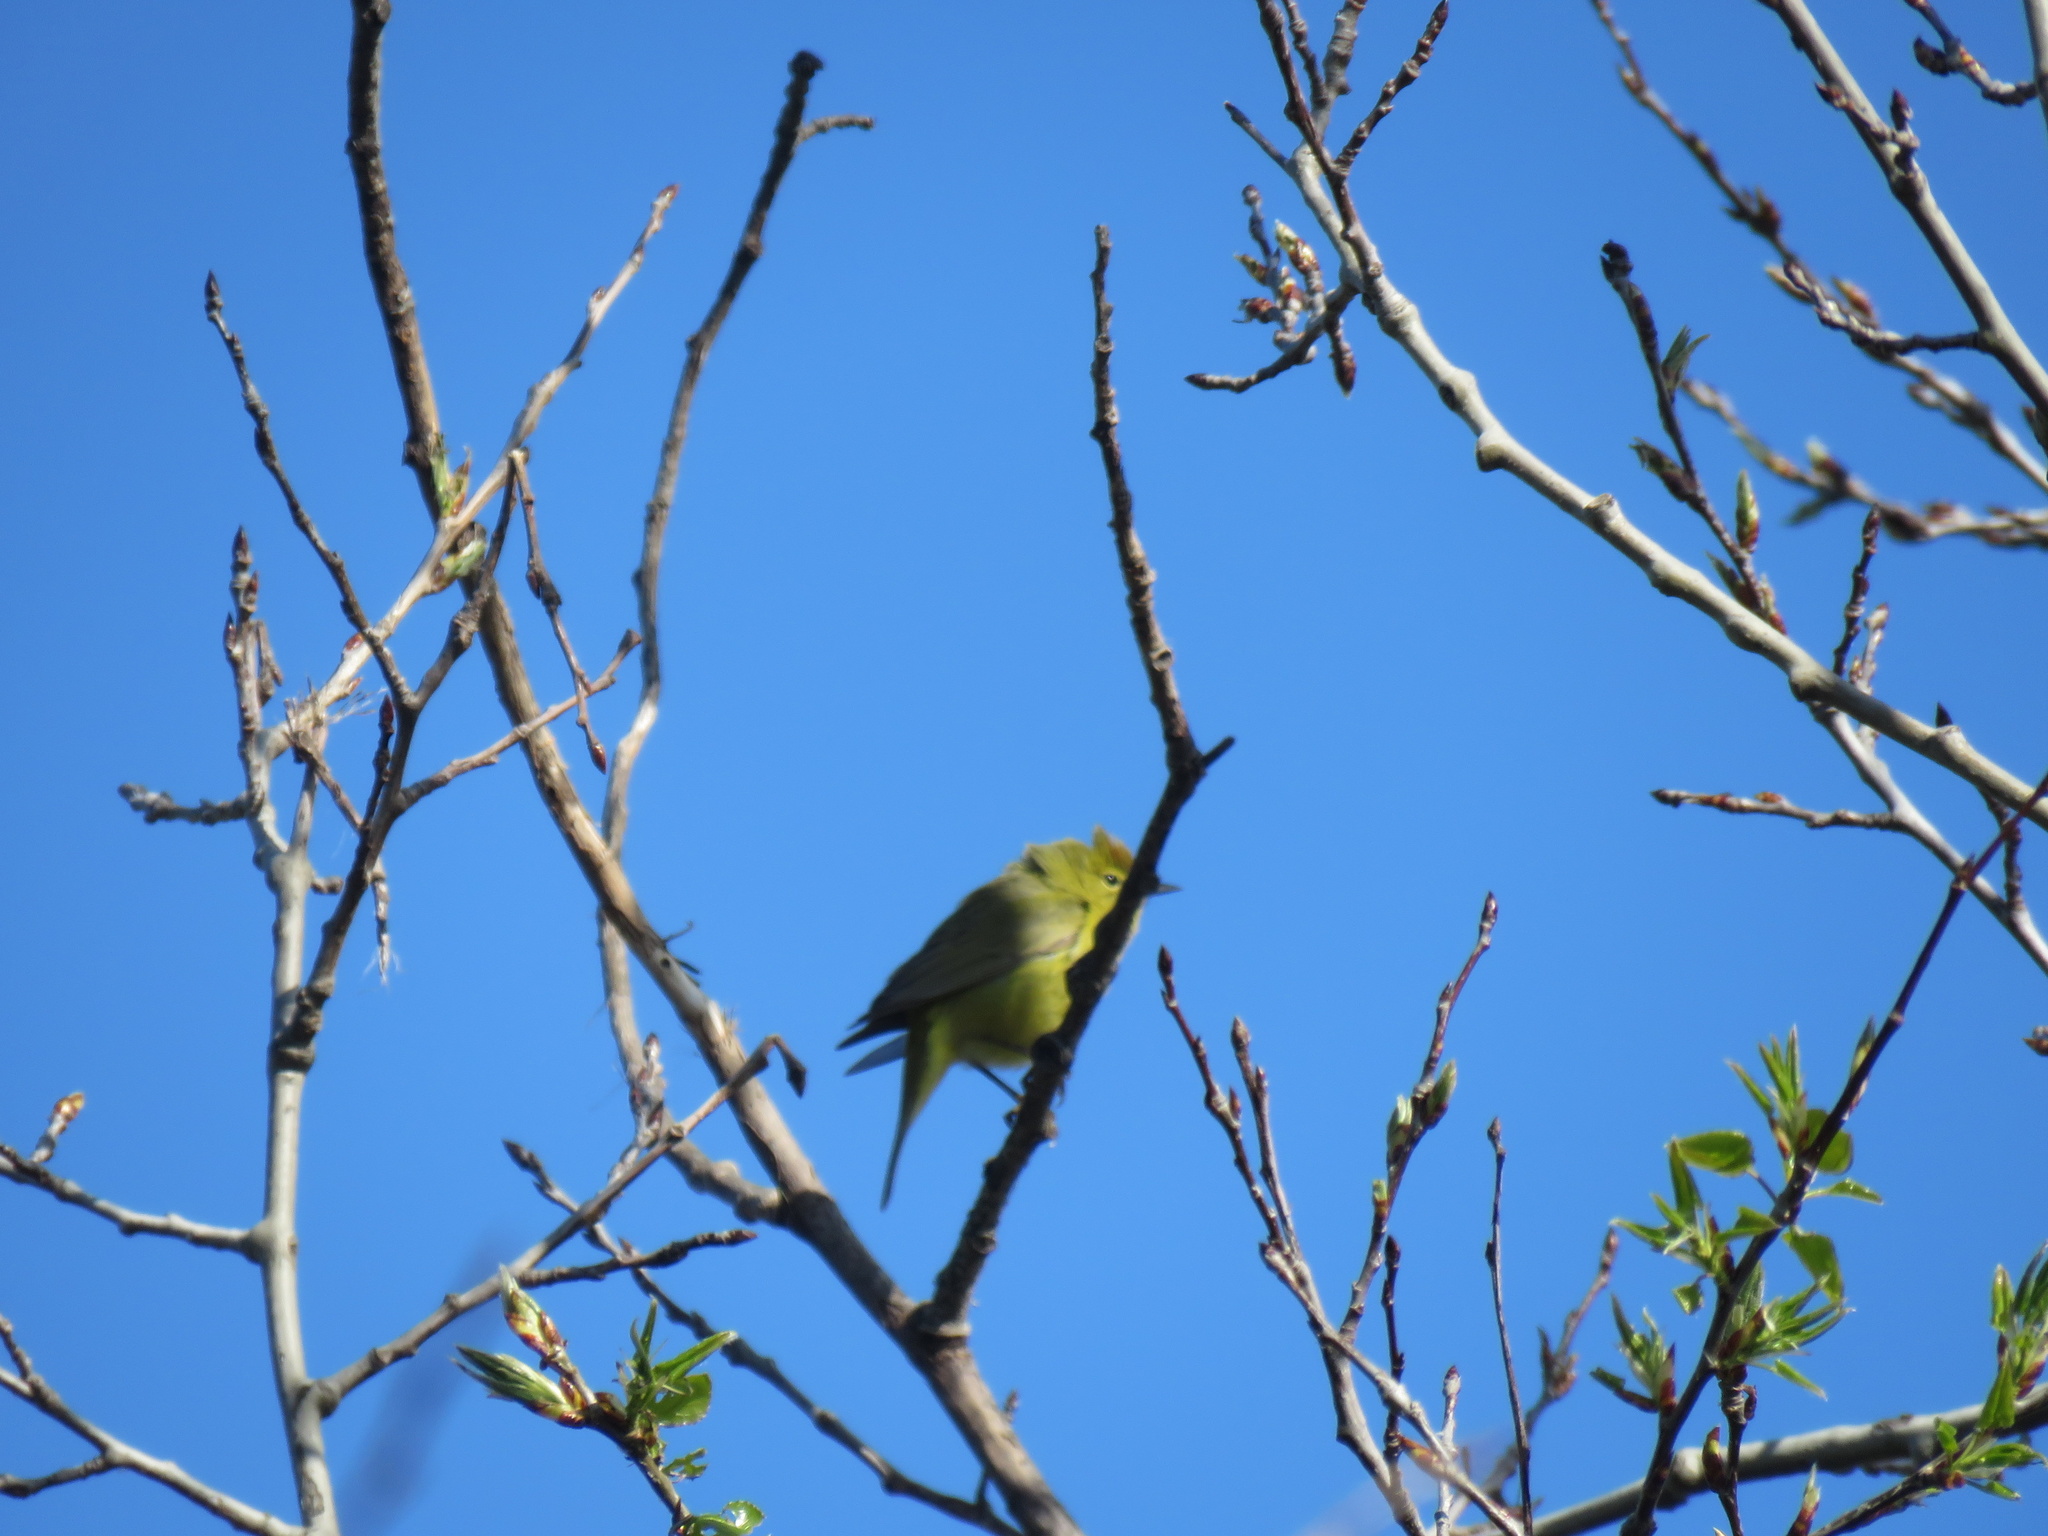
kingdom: Animalia
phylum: Chordata
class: Aves
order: Passeriformes
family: Parulidae
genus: Leiothlypis
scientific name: Leiothlypis celata
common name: Orange-crowned warbler
